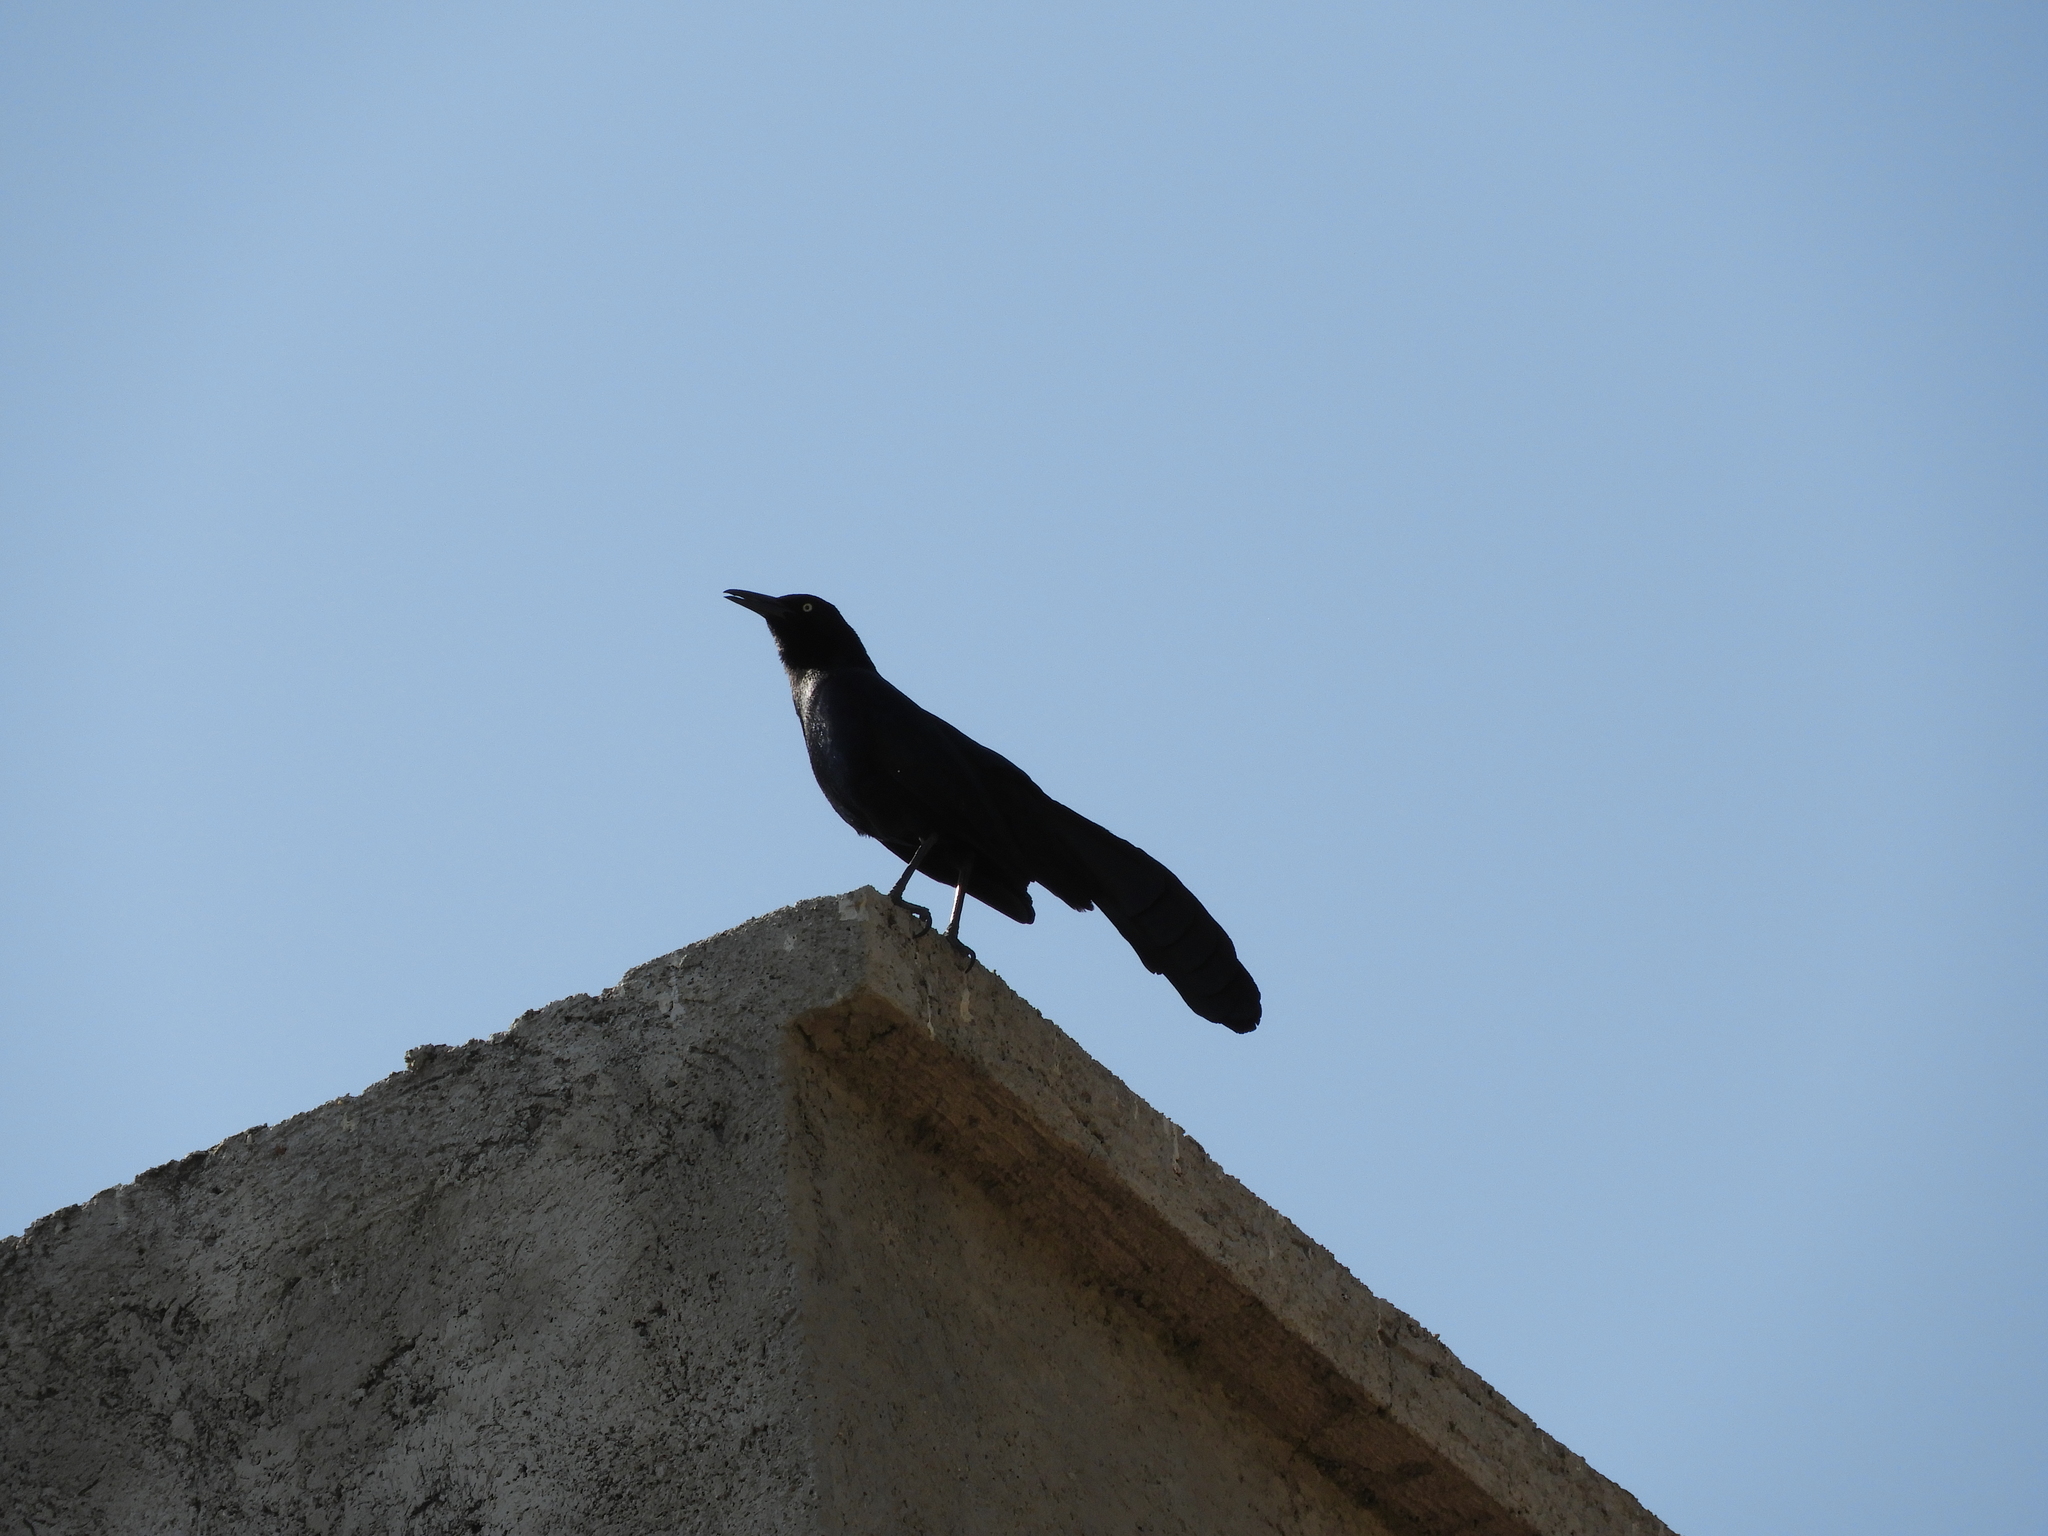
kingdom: Animalia
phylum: Chordata
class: Aves
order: Passeriformes
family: Icteridae
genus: Quiscalus
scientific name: Quiscalus mexicanus
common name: Great-tailed grackle
